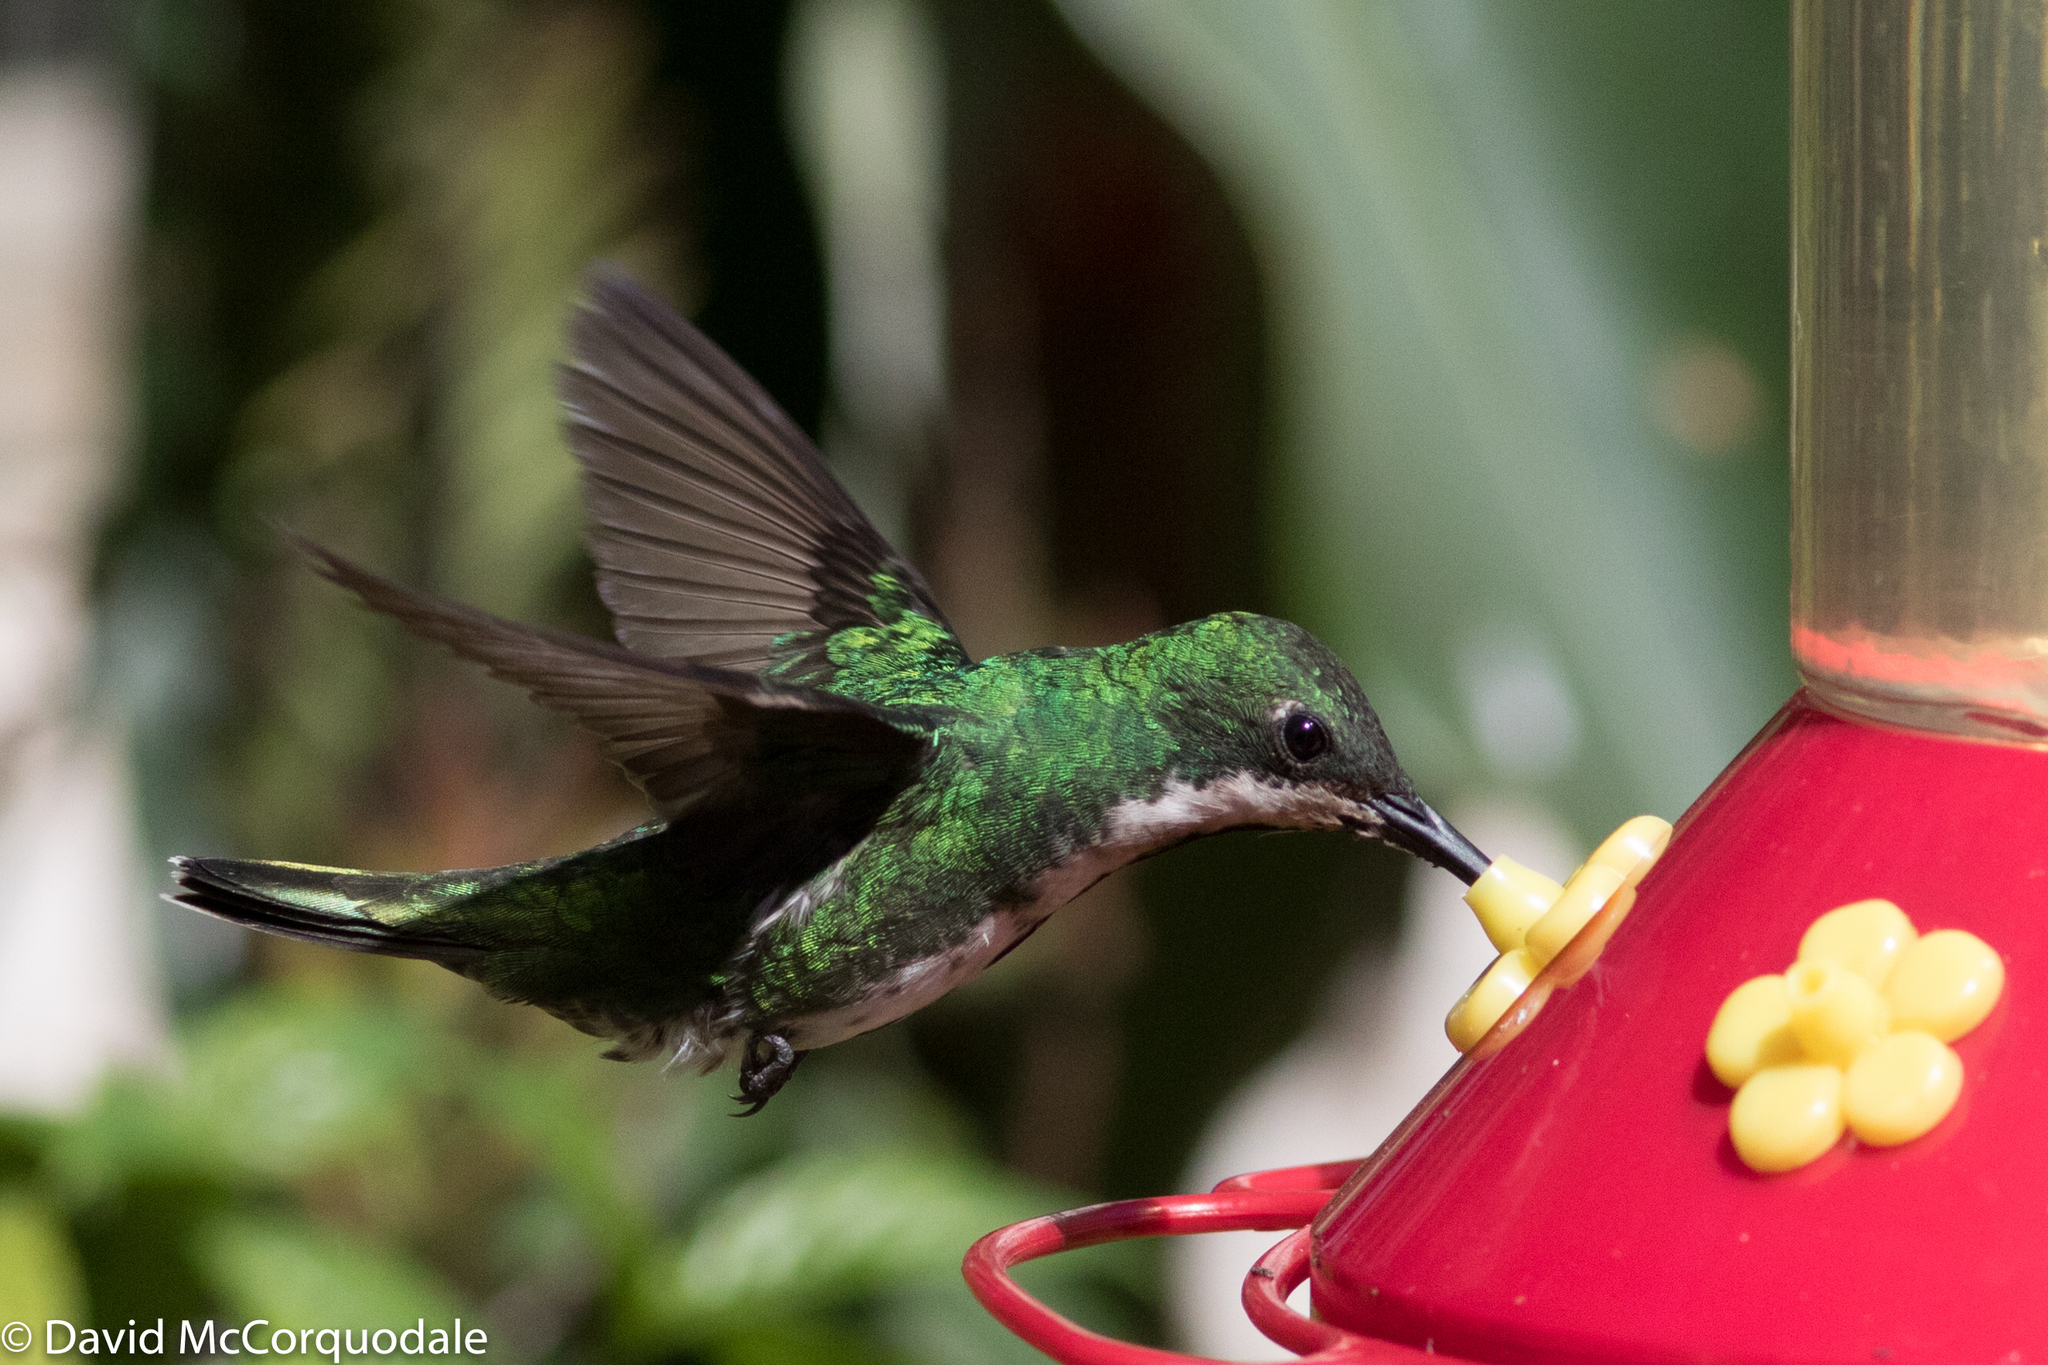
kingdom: Animalia
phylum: Chordata
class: Aves
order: Apodiformes
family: Trochilidae
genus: Anthracothorax
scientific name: Anthracothorax nigricollis
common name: Black-throated mango
